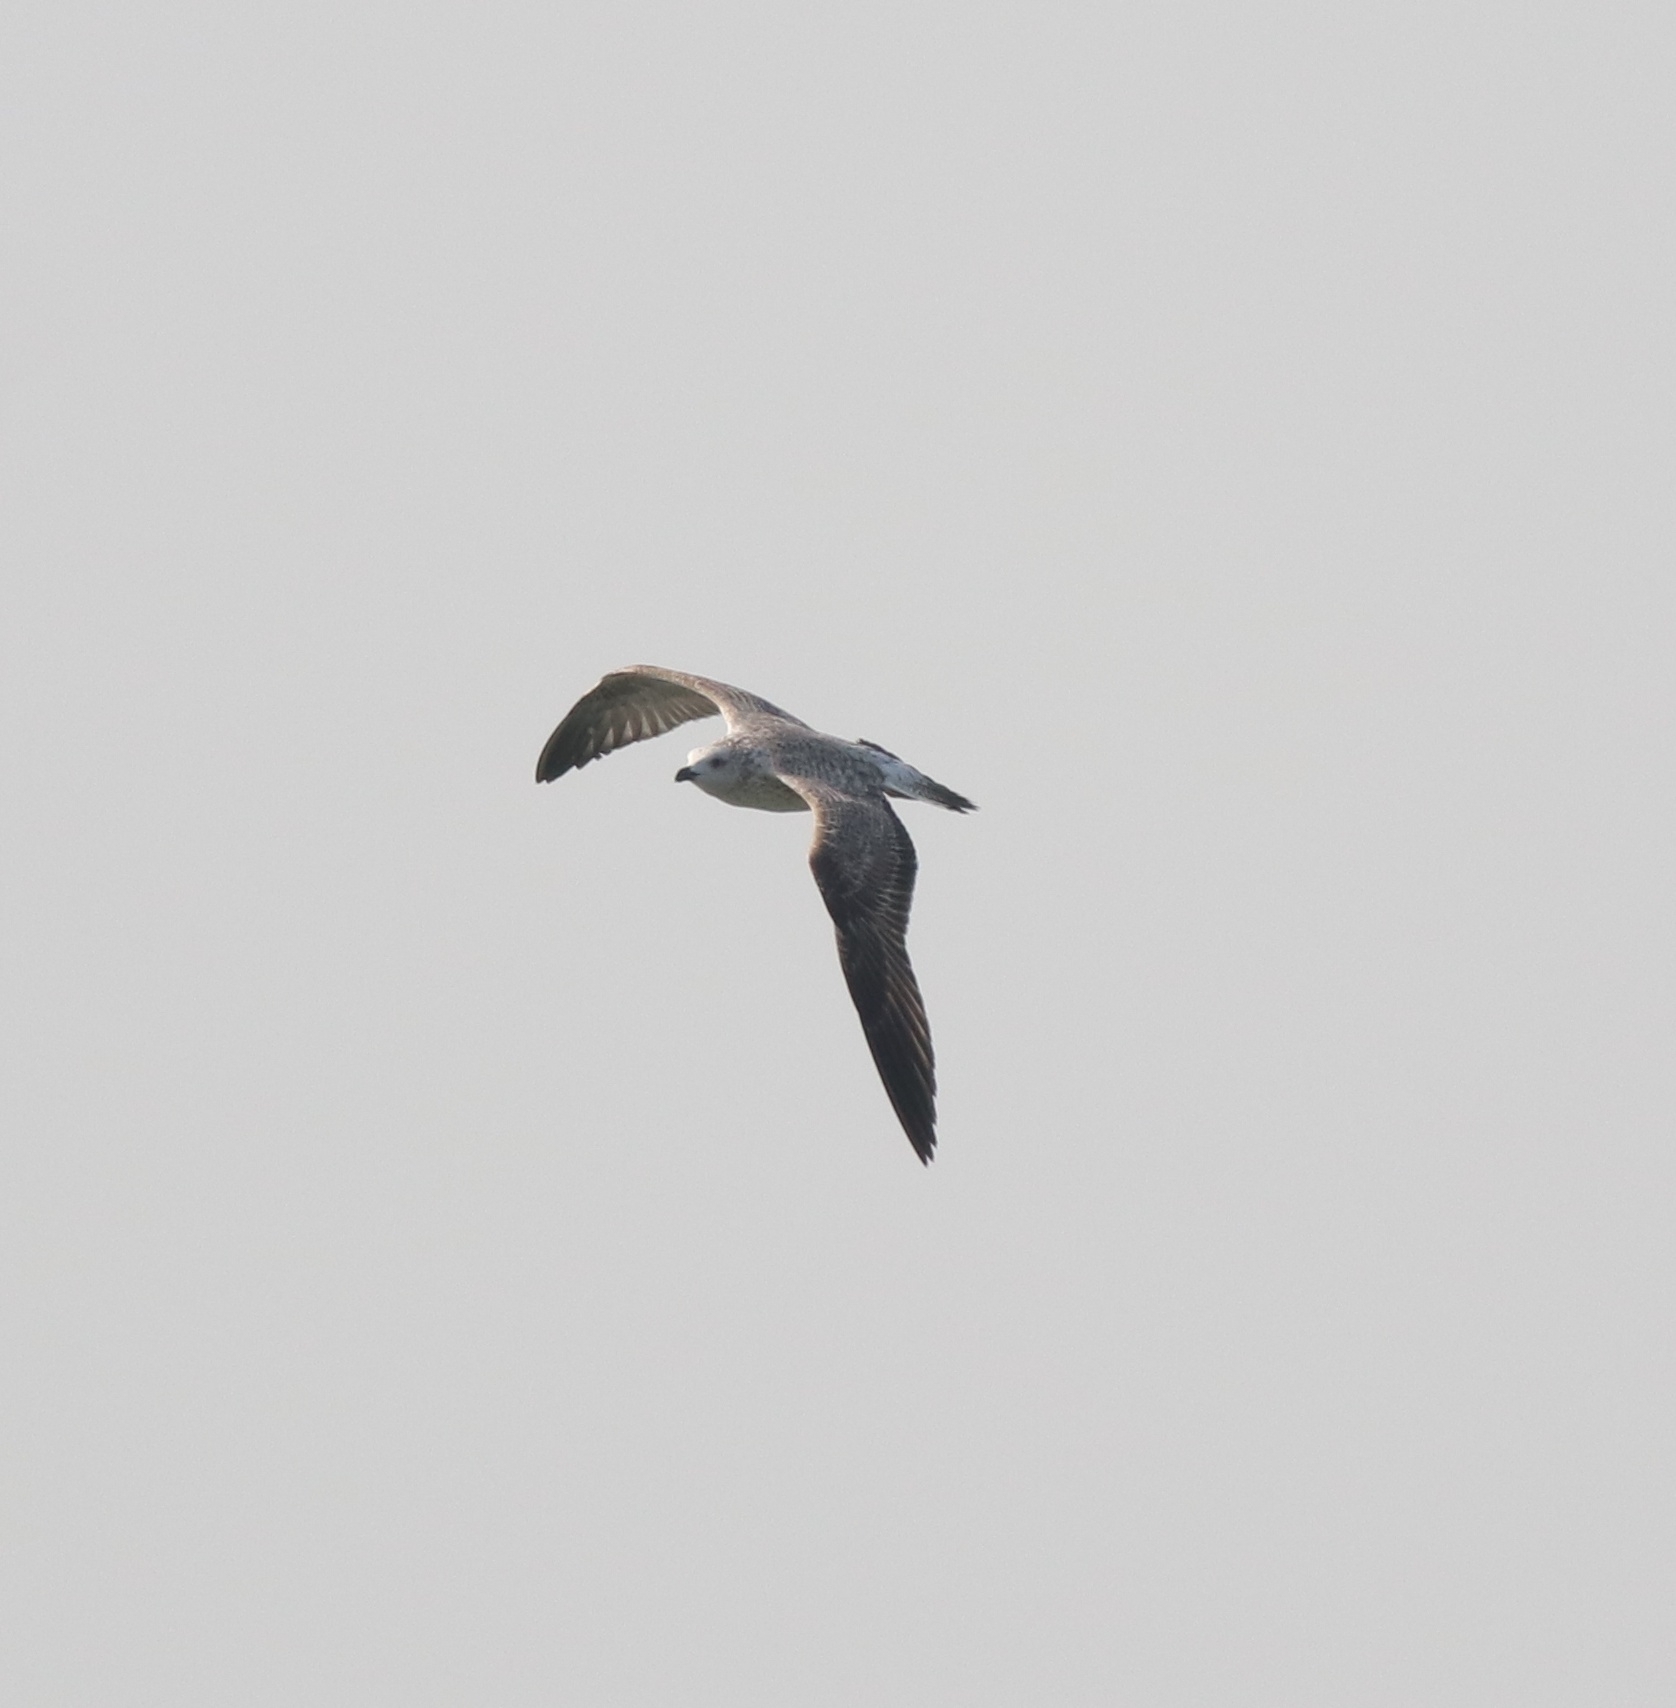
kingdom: Animalia
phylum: Chordata
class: Aves
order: Charadriiformes
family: Laridae
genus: Larus
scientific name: Larus fuscus
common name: Lesser black-backed gull
